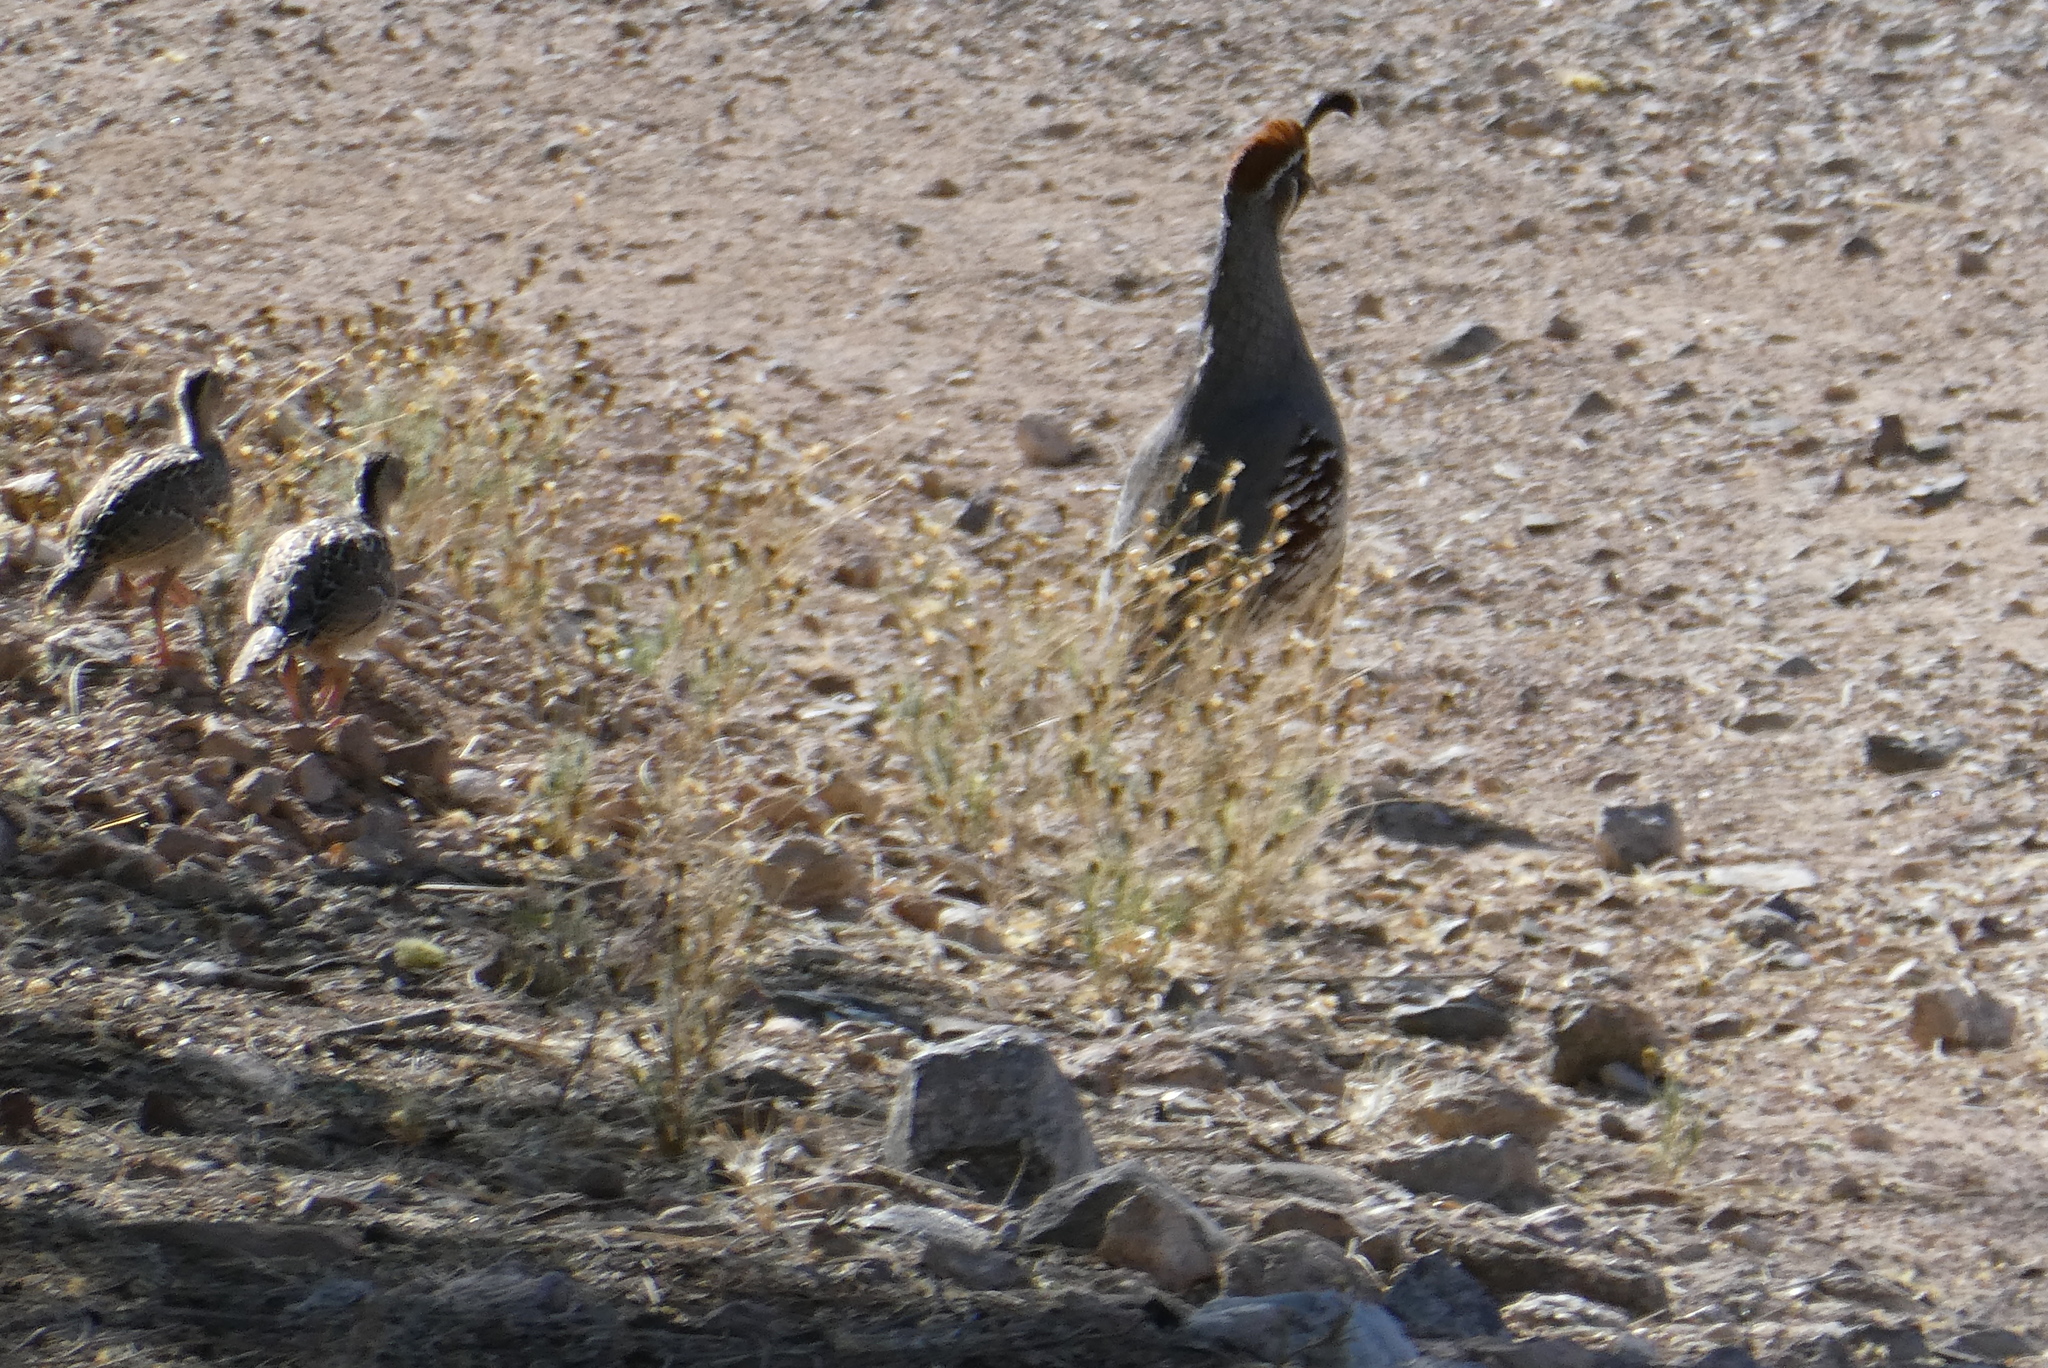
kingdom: Animalia
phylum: Chordata
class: Aves
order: Galliformes
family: Odontophoridae
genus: Callipepla
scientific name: Callipepla gambelii
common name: Gambel's quail
